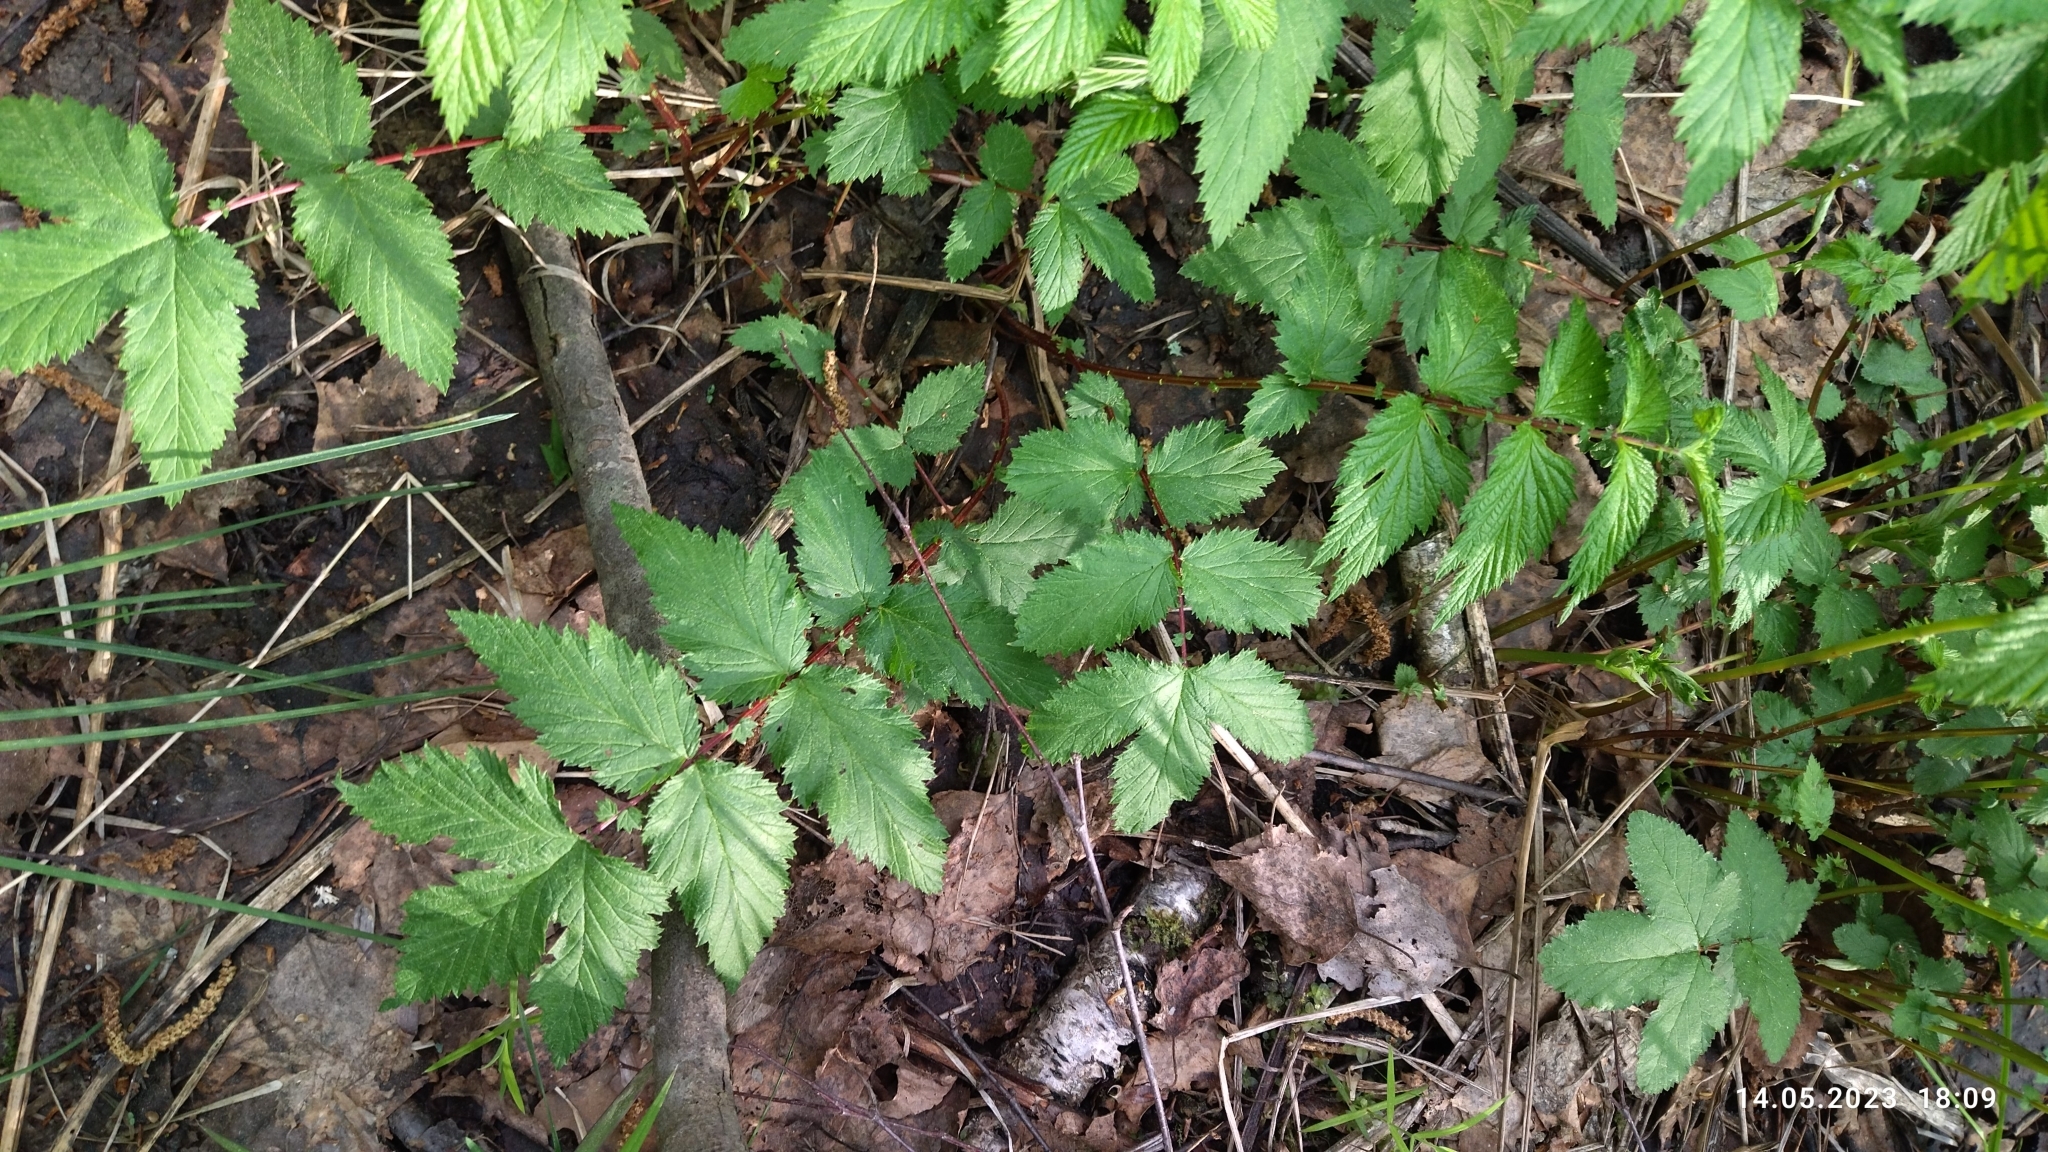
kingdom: Plantae
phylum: Tracheophyta
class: Magnoliopsida
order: Rosales
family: Rosaceae
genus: Filipendula
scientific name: Filipendula ulmaria
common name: Meadowsweet
